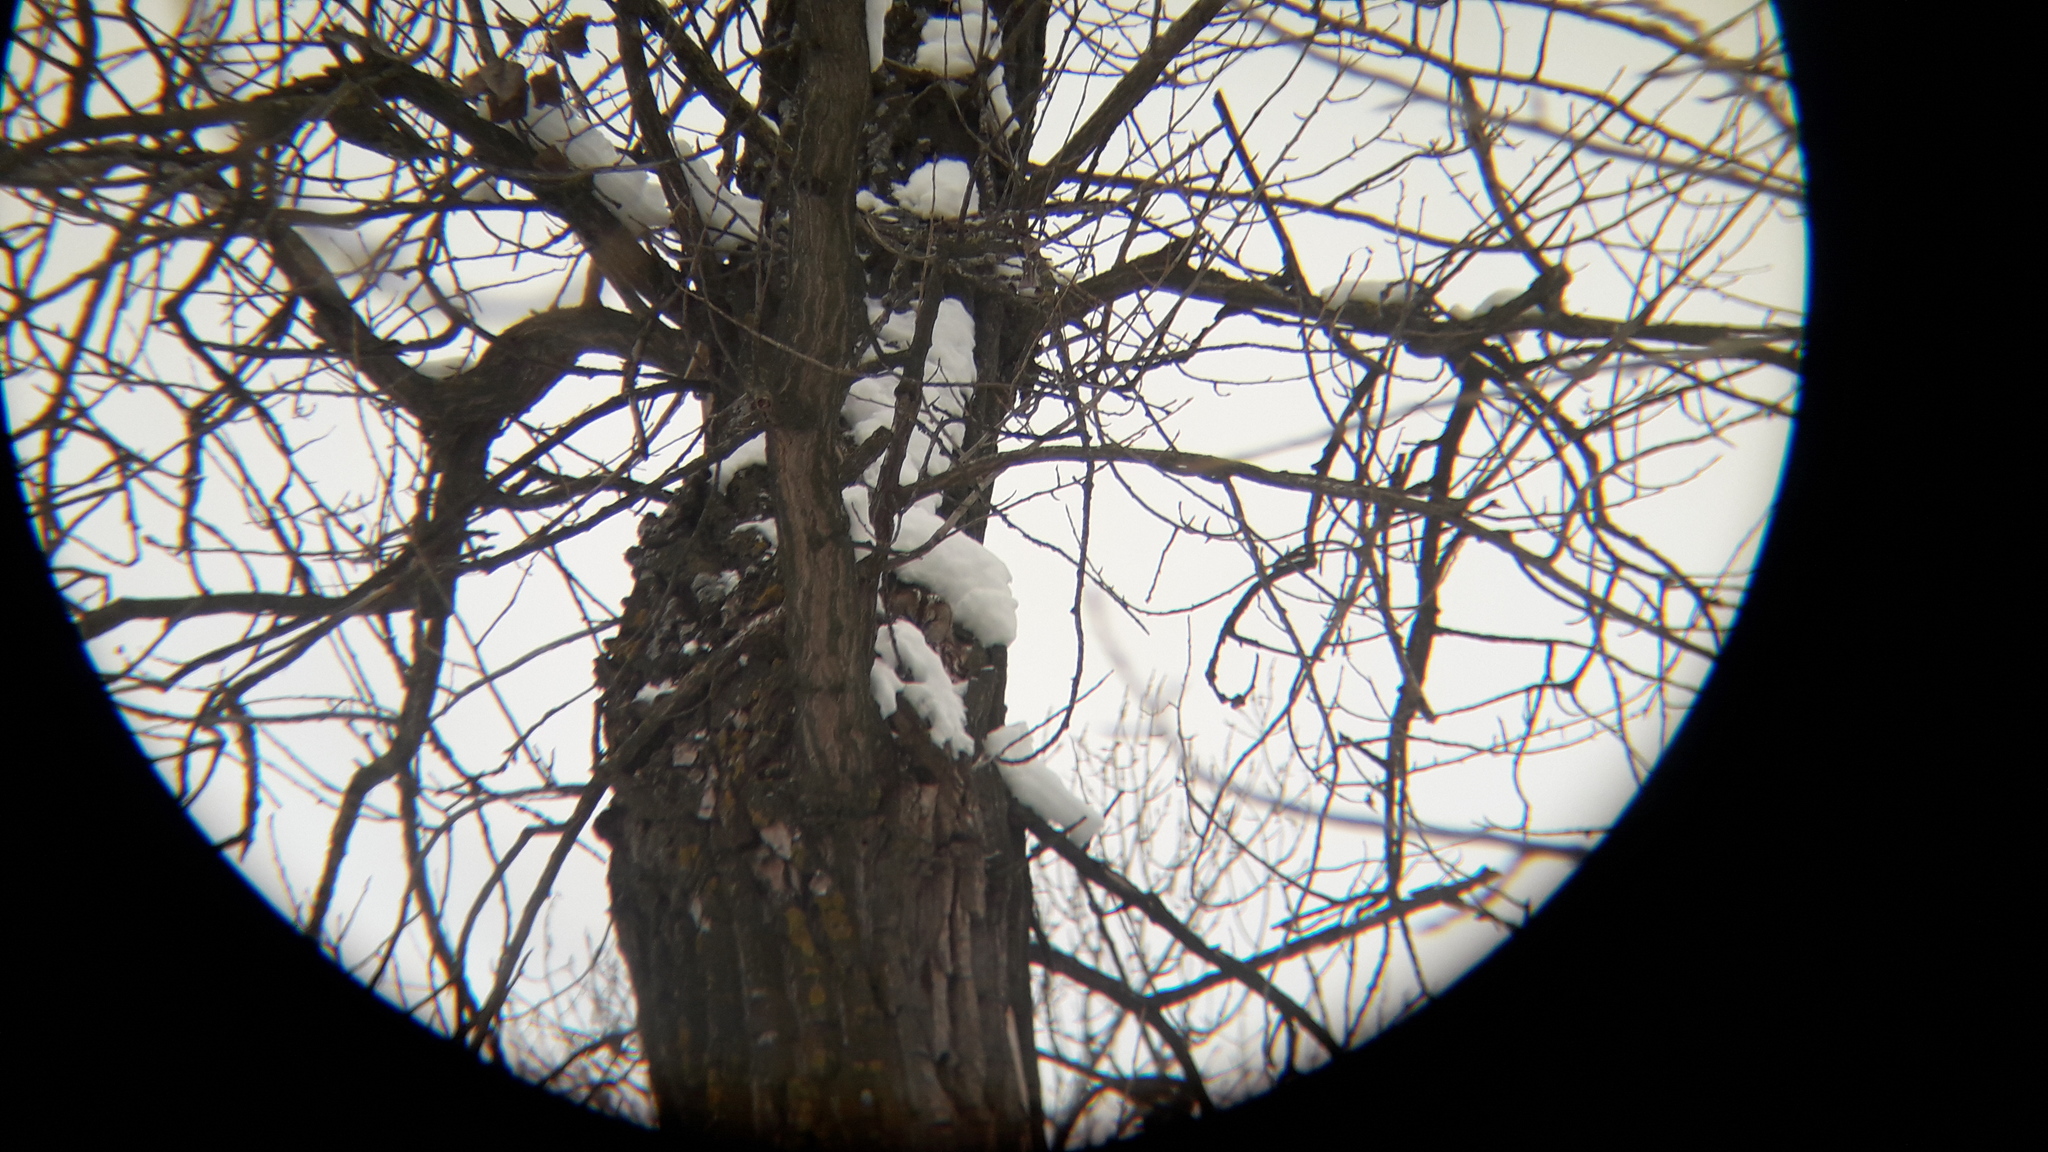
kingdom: Animalia
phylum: Chordata
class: Aves
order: Strigiformes
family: Strigidae
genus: Strix
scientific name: Strix aluco
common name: Tawny owl
